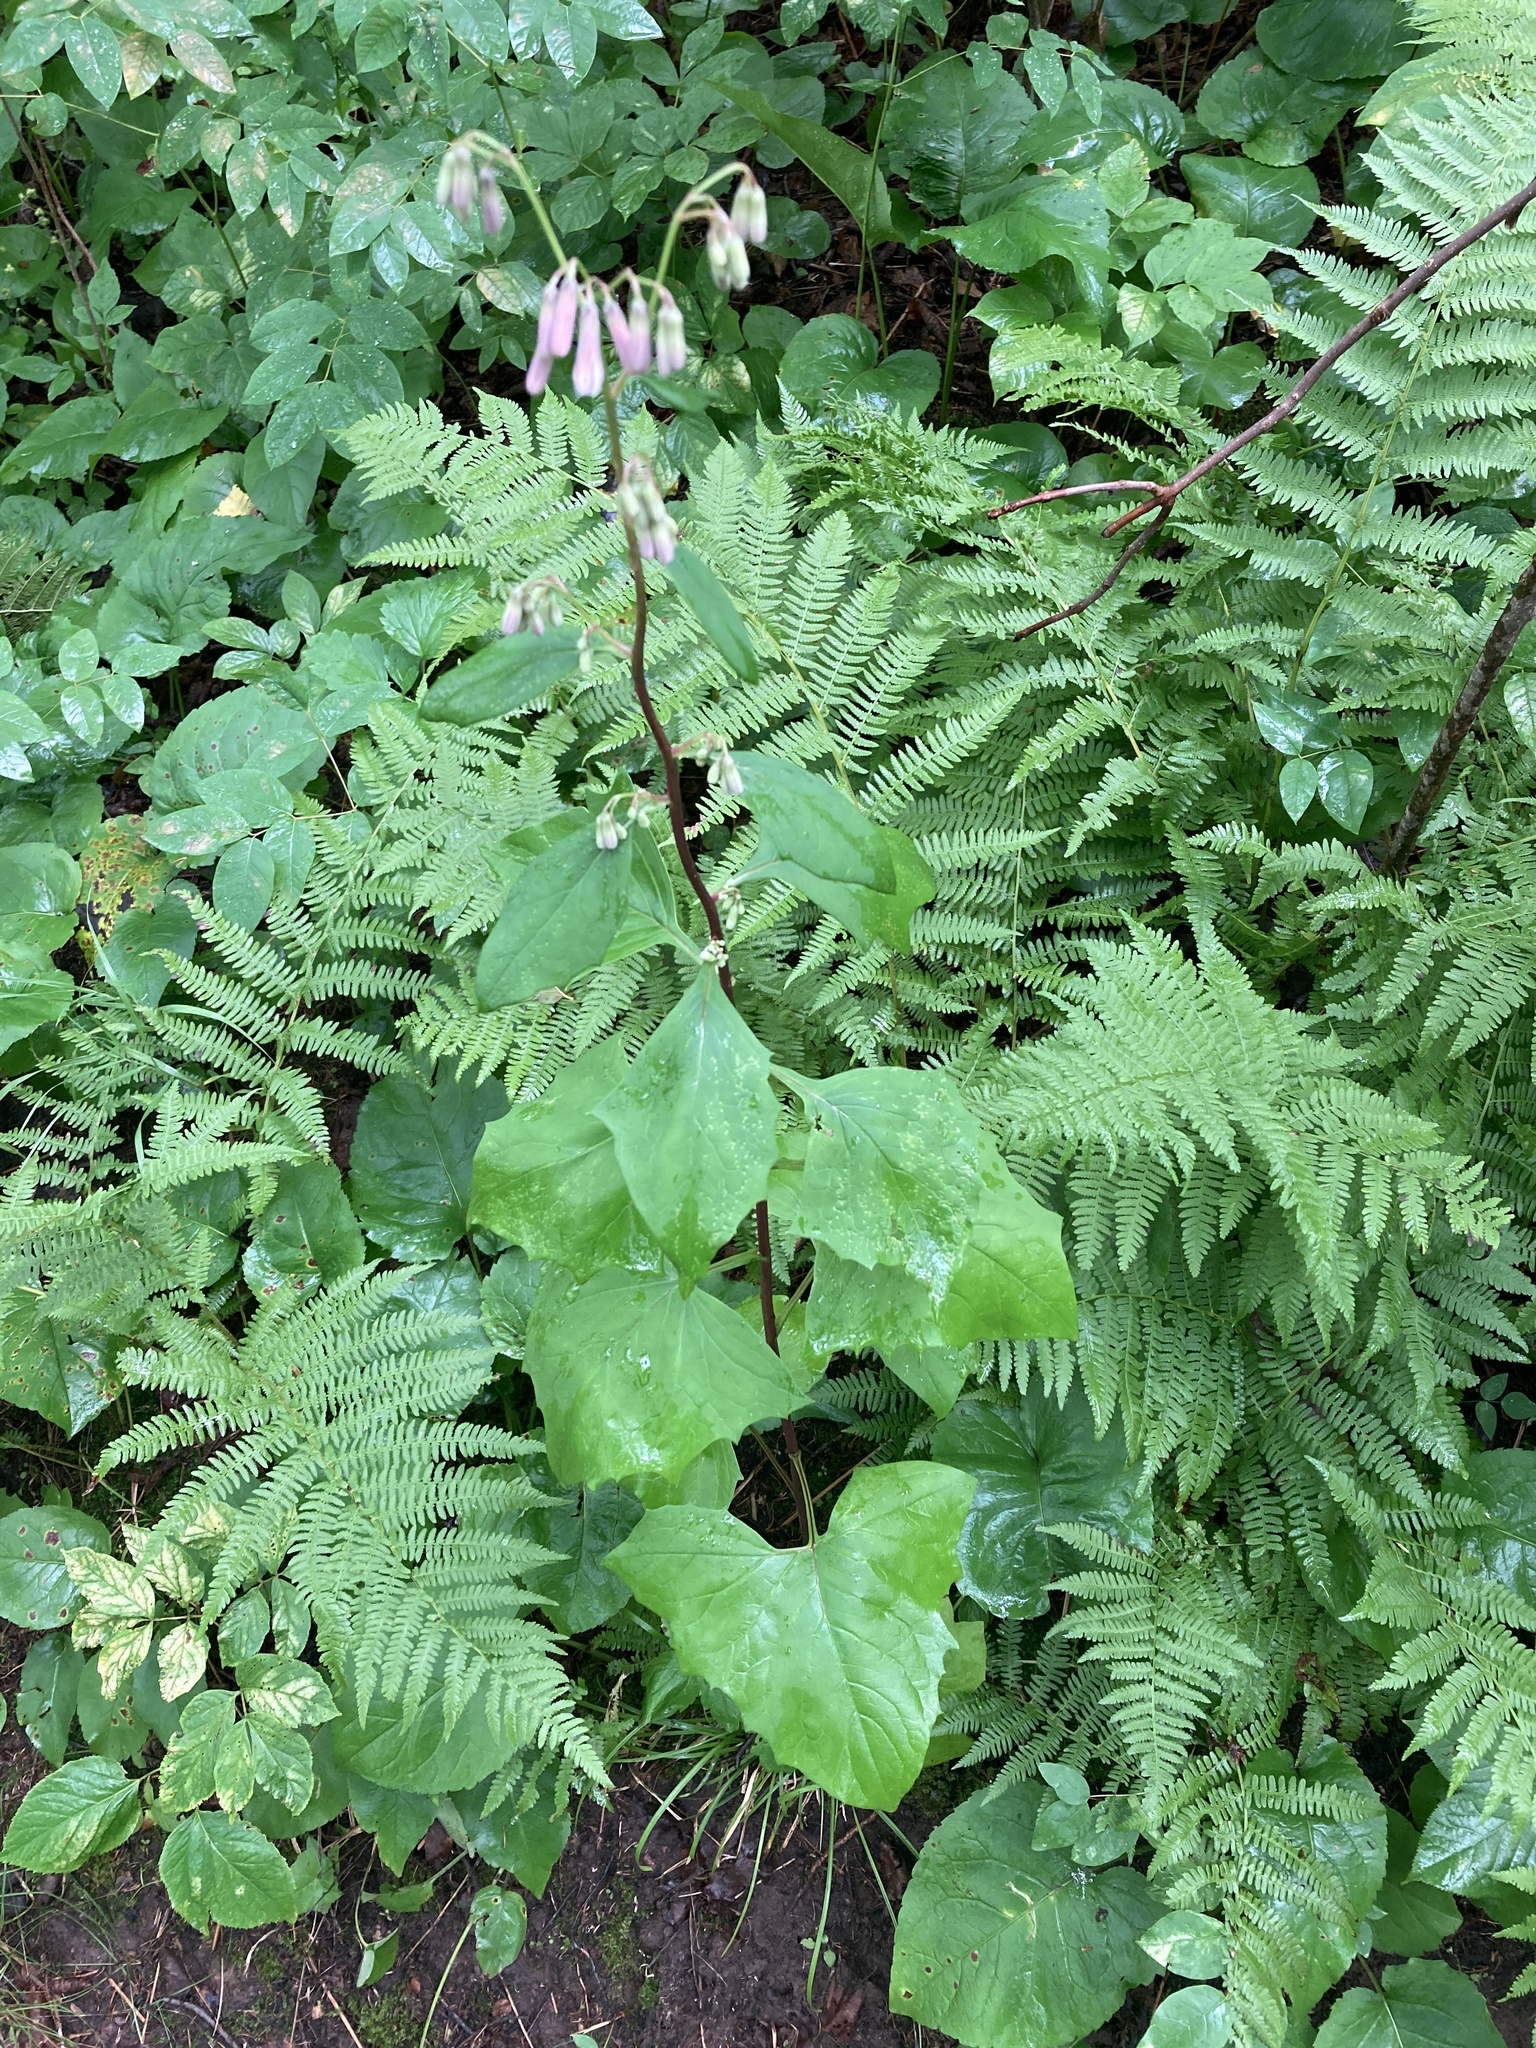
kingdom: Plantae
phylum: Tracheophyta
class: Magnoliopsida
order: Asterales
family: Asteraceae
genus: Nabalus
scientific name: Nabalus albus
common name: White rattlesnakeroot
